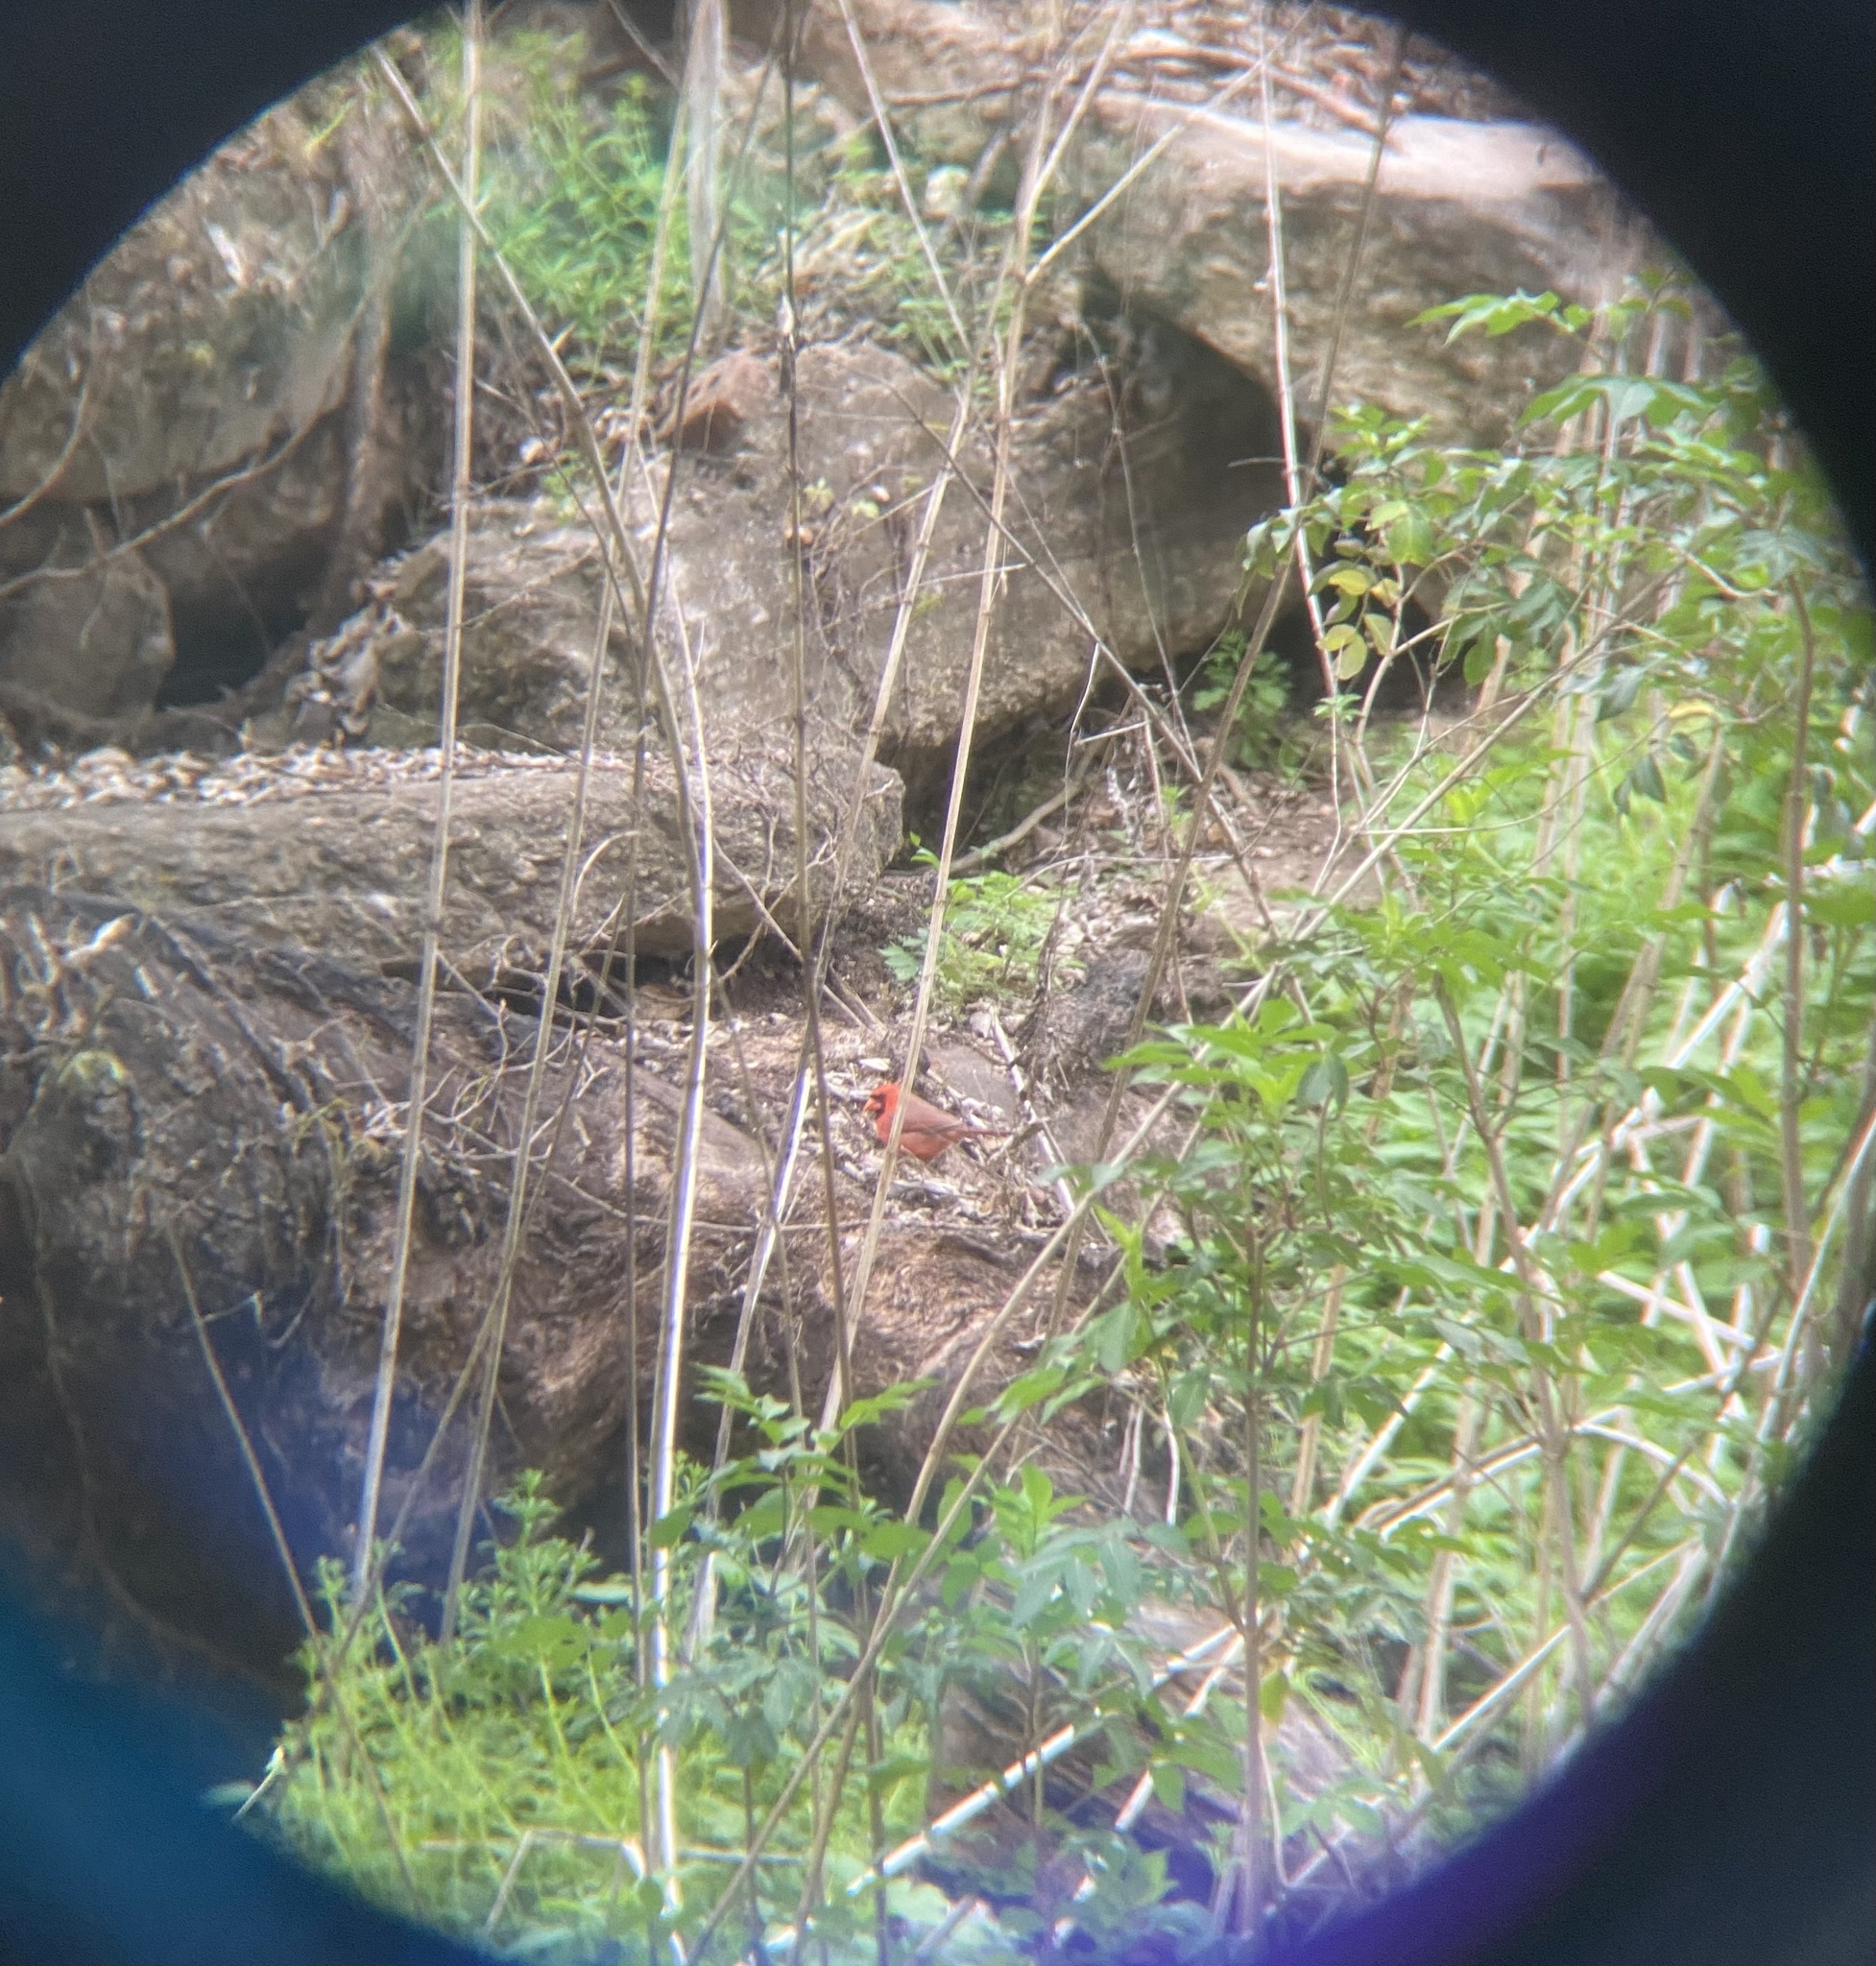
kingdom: Animalia
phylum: Chordata
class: Aves
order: Passeriformes
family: Cardinalidae
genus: Cardinalis
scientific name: Cardinalis cardinalis
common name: Northern cardinal
